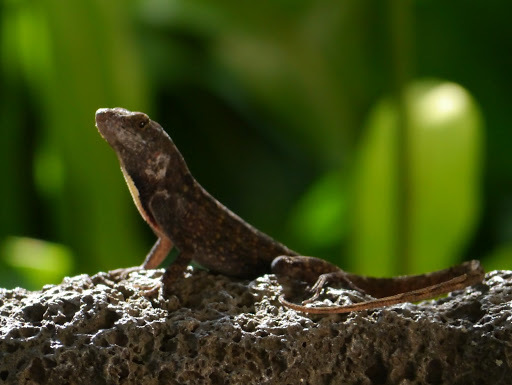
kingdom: Animalia
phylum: Chordata
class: Squamata
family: Dactyloidae
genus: Anolis
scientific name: Anolis sagrei
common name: Brown anole
